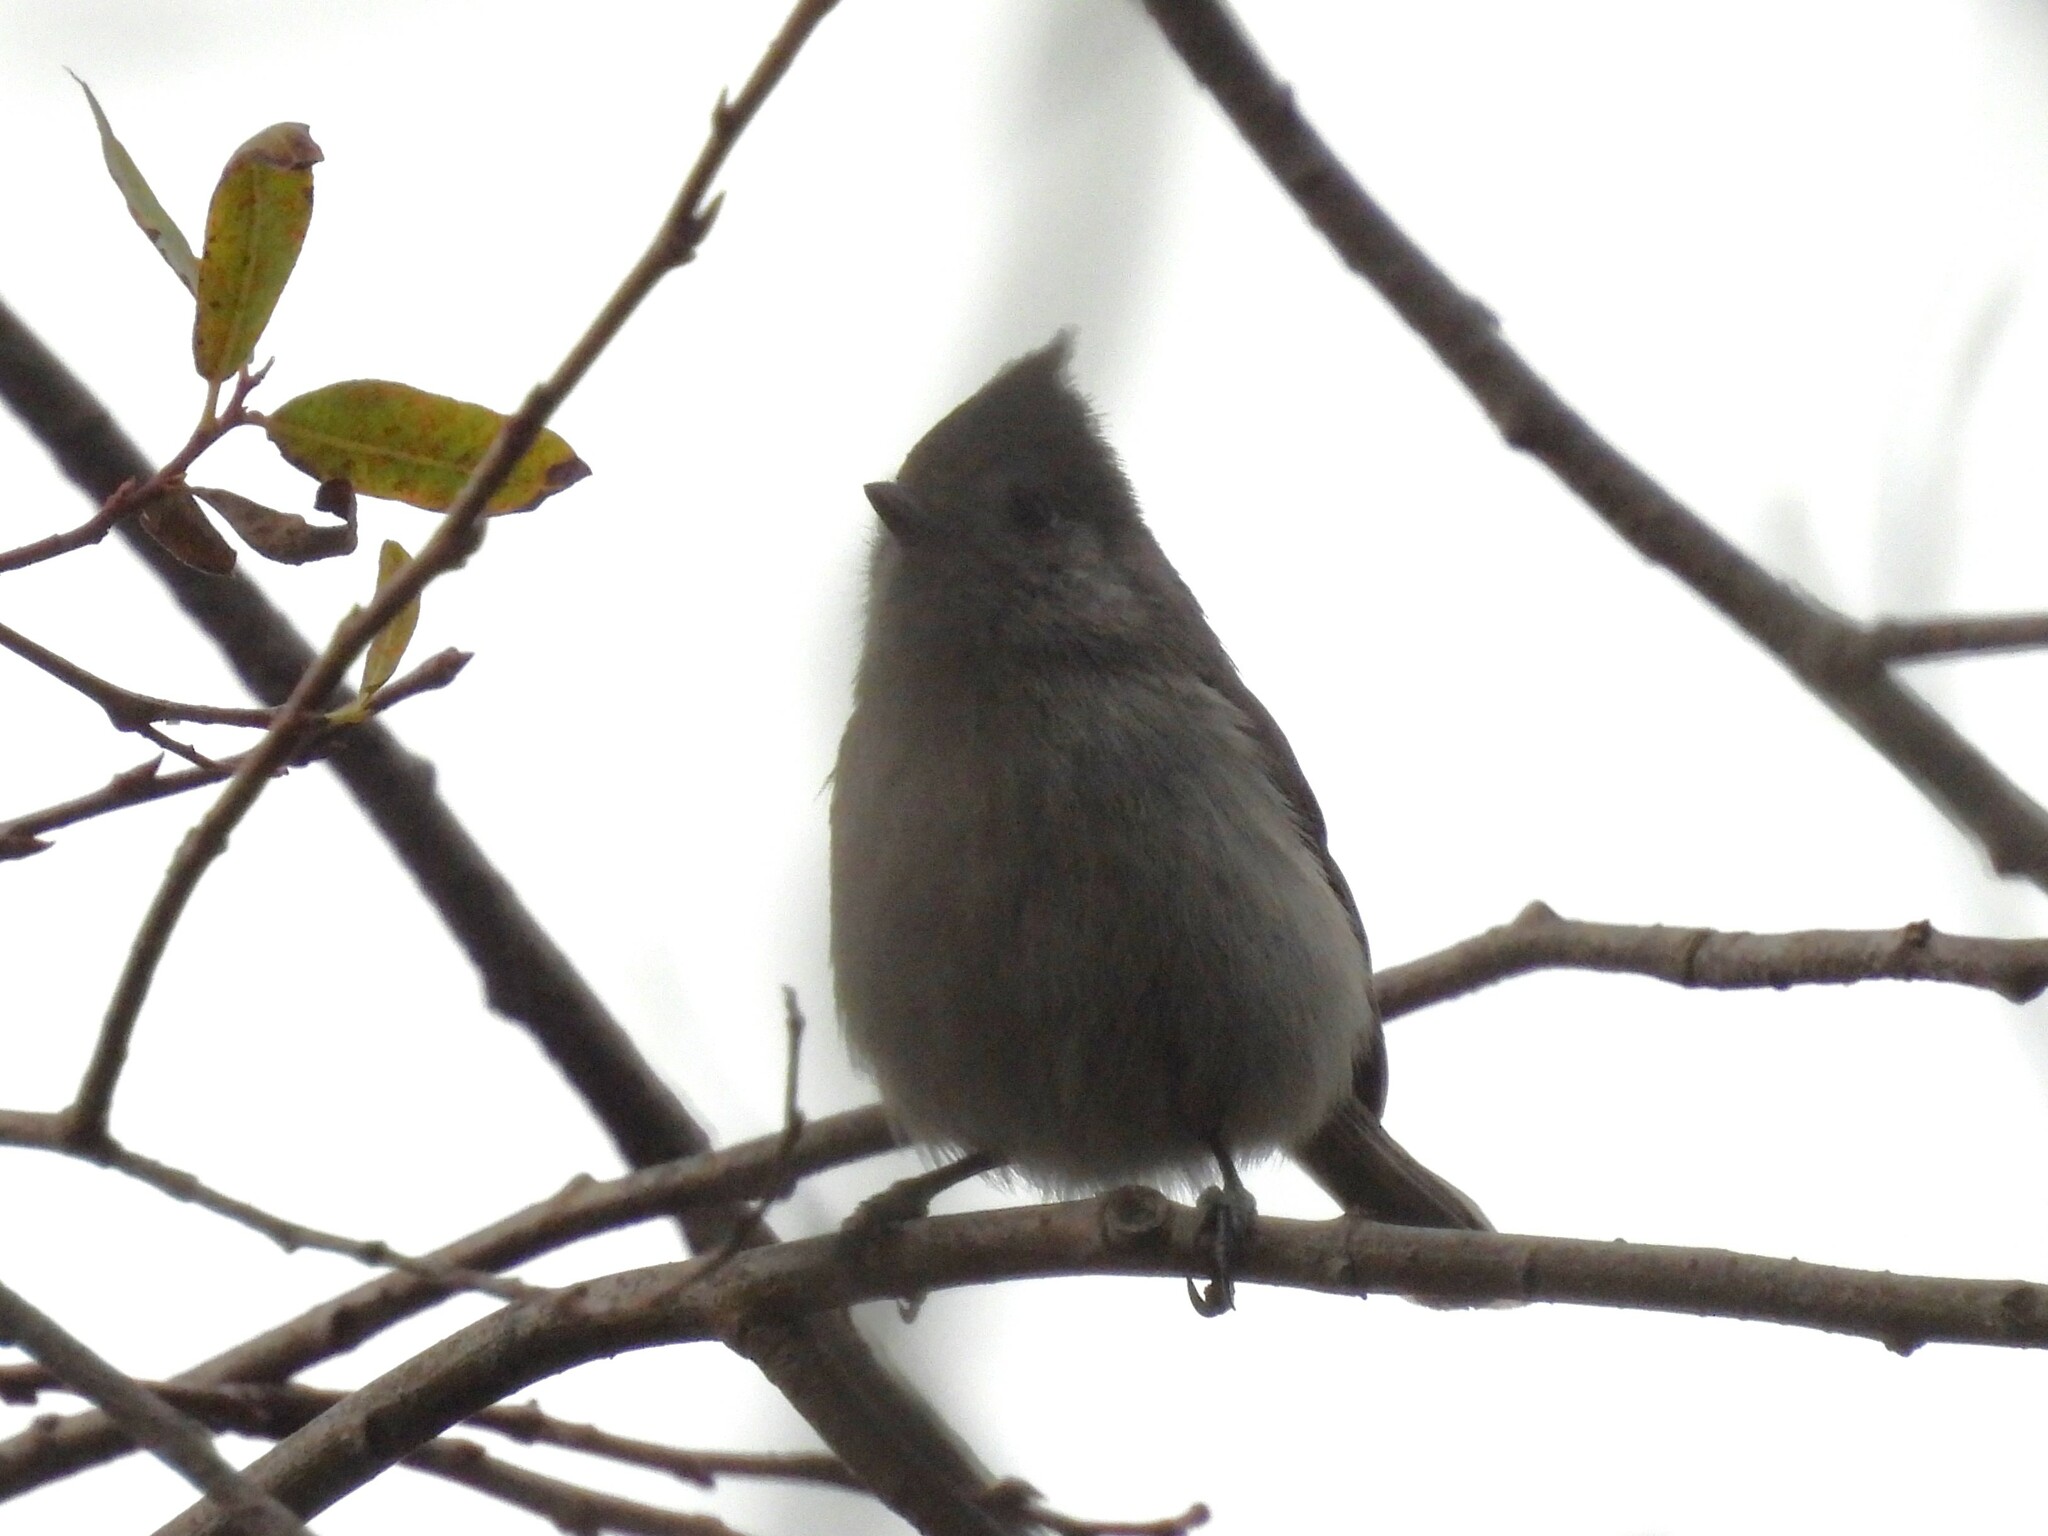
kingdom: Animalia
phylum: Chordata
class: Aves
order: Passeriformes
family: Paridae
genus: Baeolophus
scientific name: Baeolophus inornatus
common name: Oak titmouse
